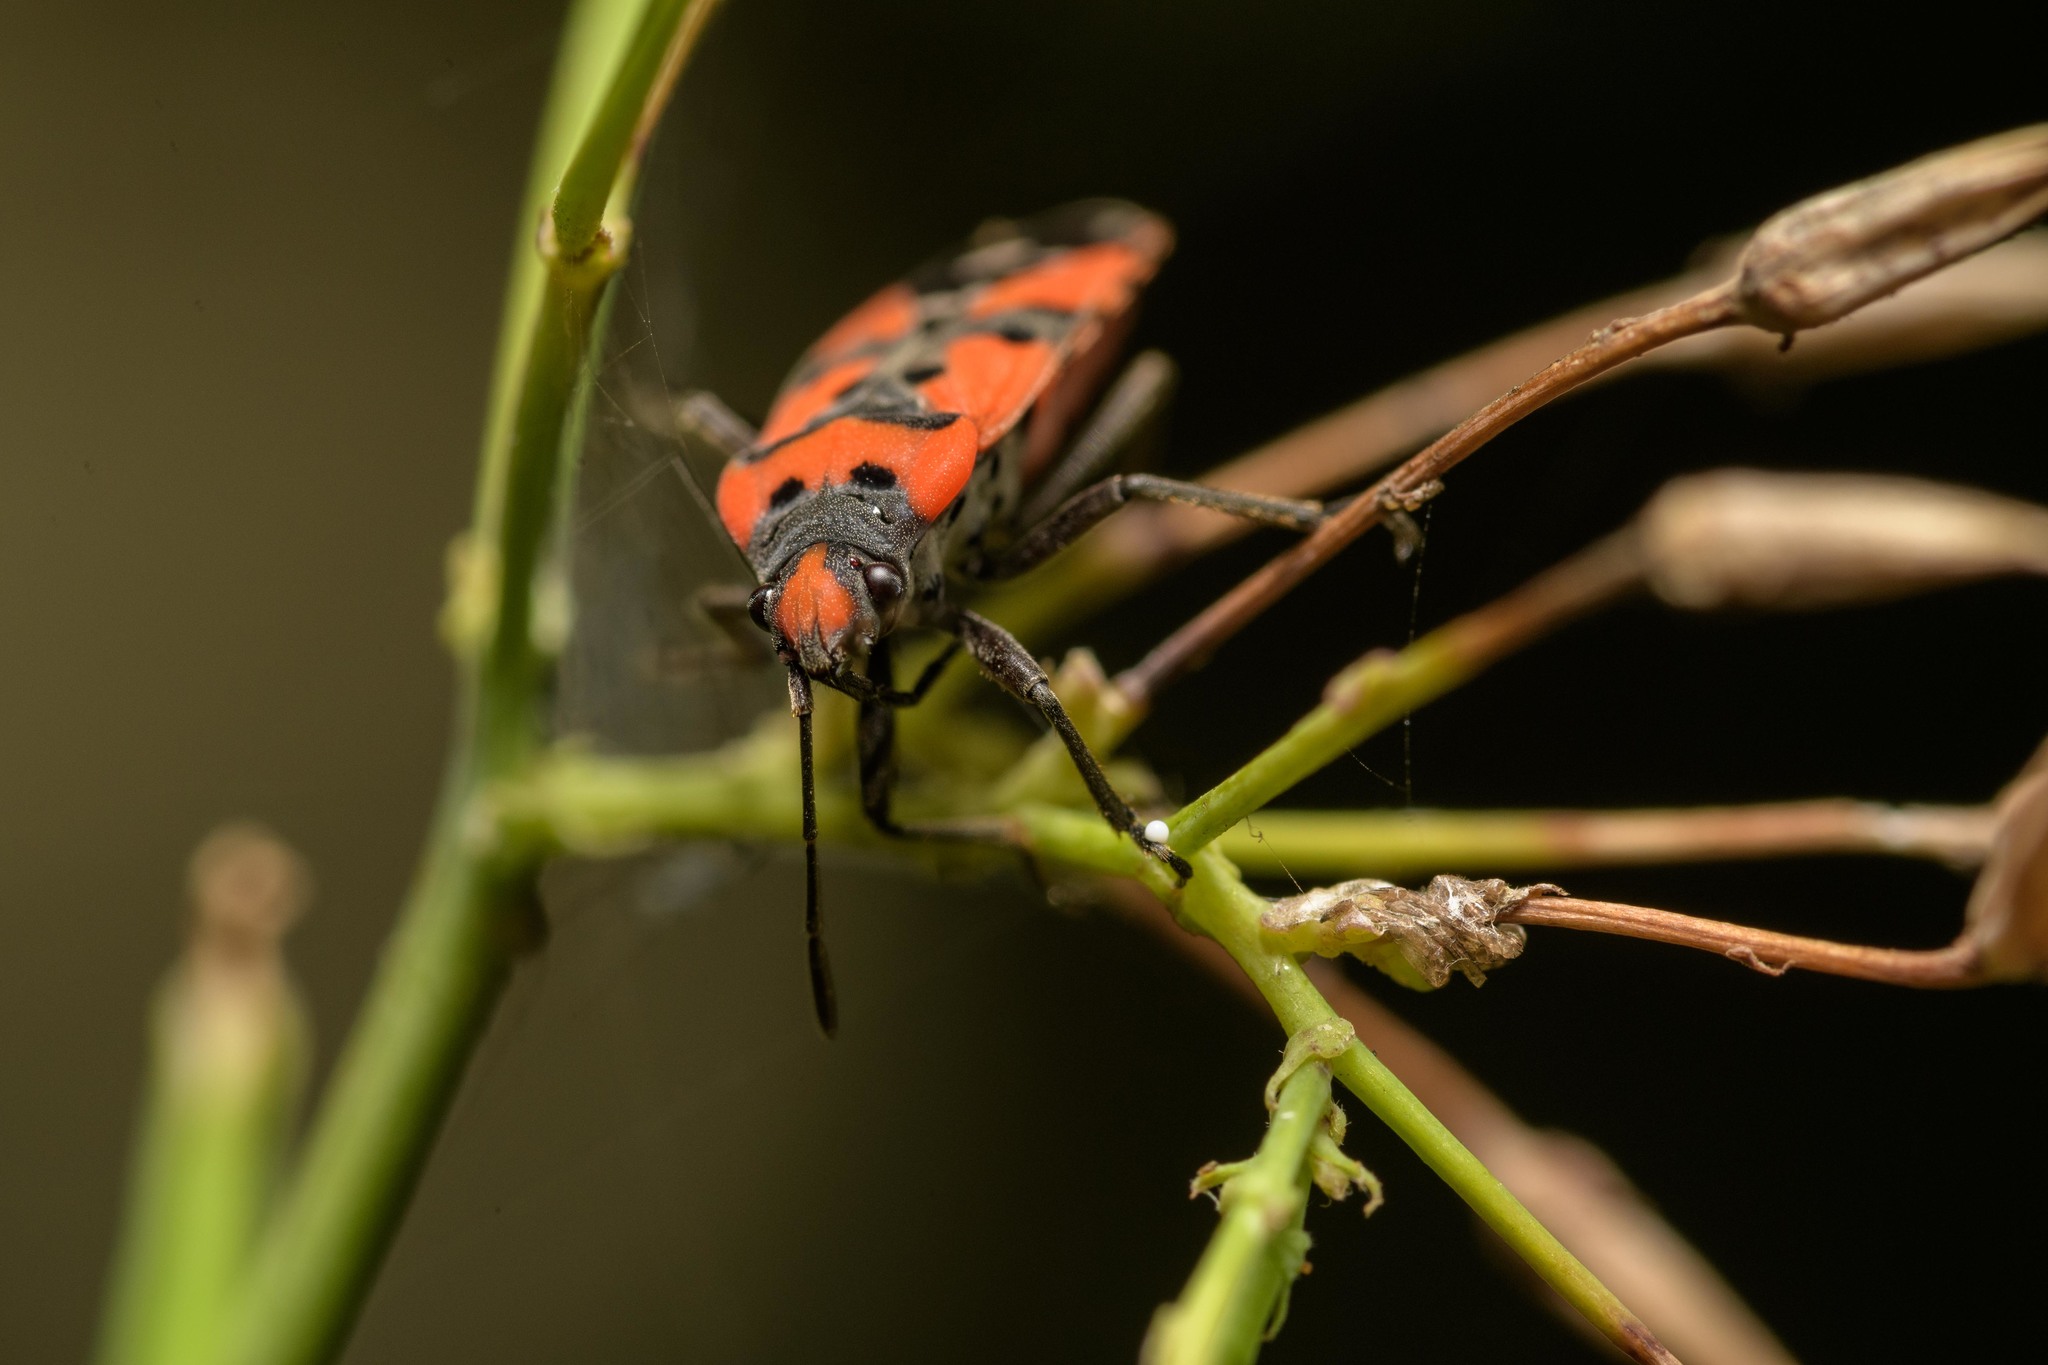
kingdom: Animalia
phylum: Arthropoda
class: Insecta
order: Hemiptera
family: Lygaeidae
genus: Lygaeus
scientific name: Lygaeus equestris
